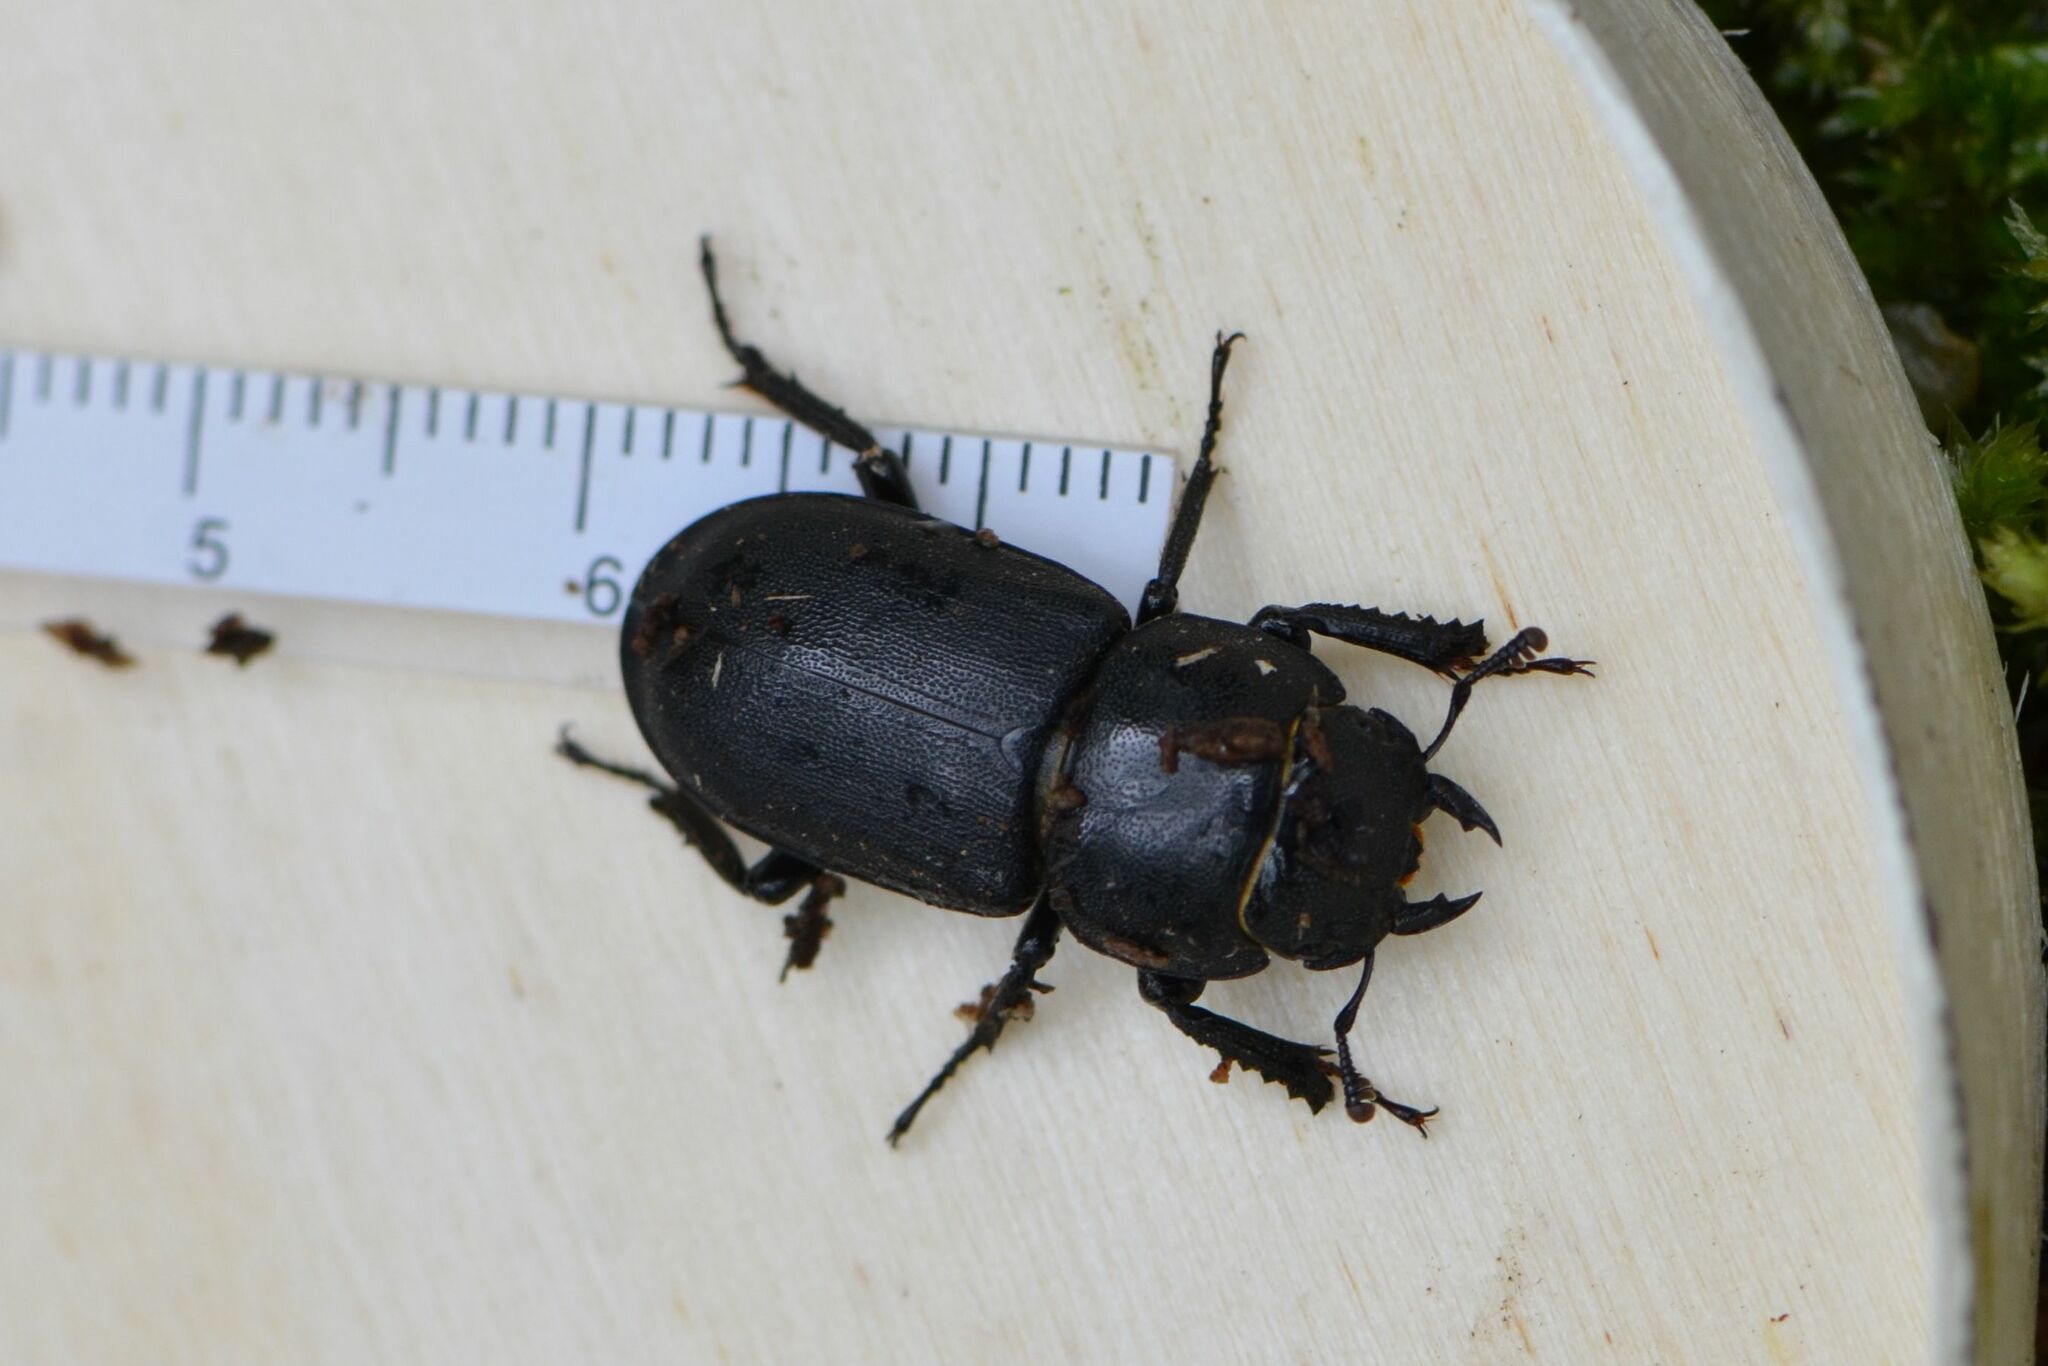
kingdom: Animalia
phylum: Arthropoda
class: Insecta
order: Coleoptera
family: Lucanidae
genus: Dorcus
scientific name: Dorcus parallelipipedus
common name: Lesser stag beetle
